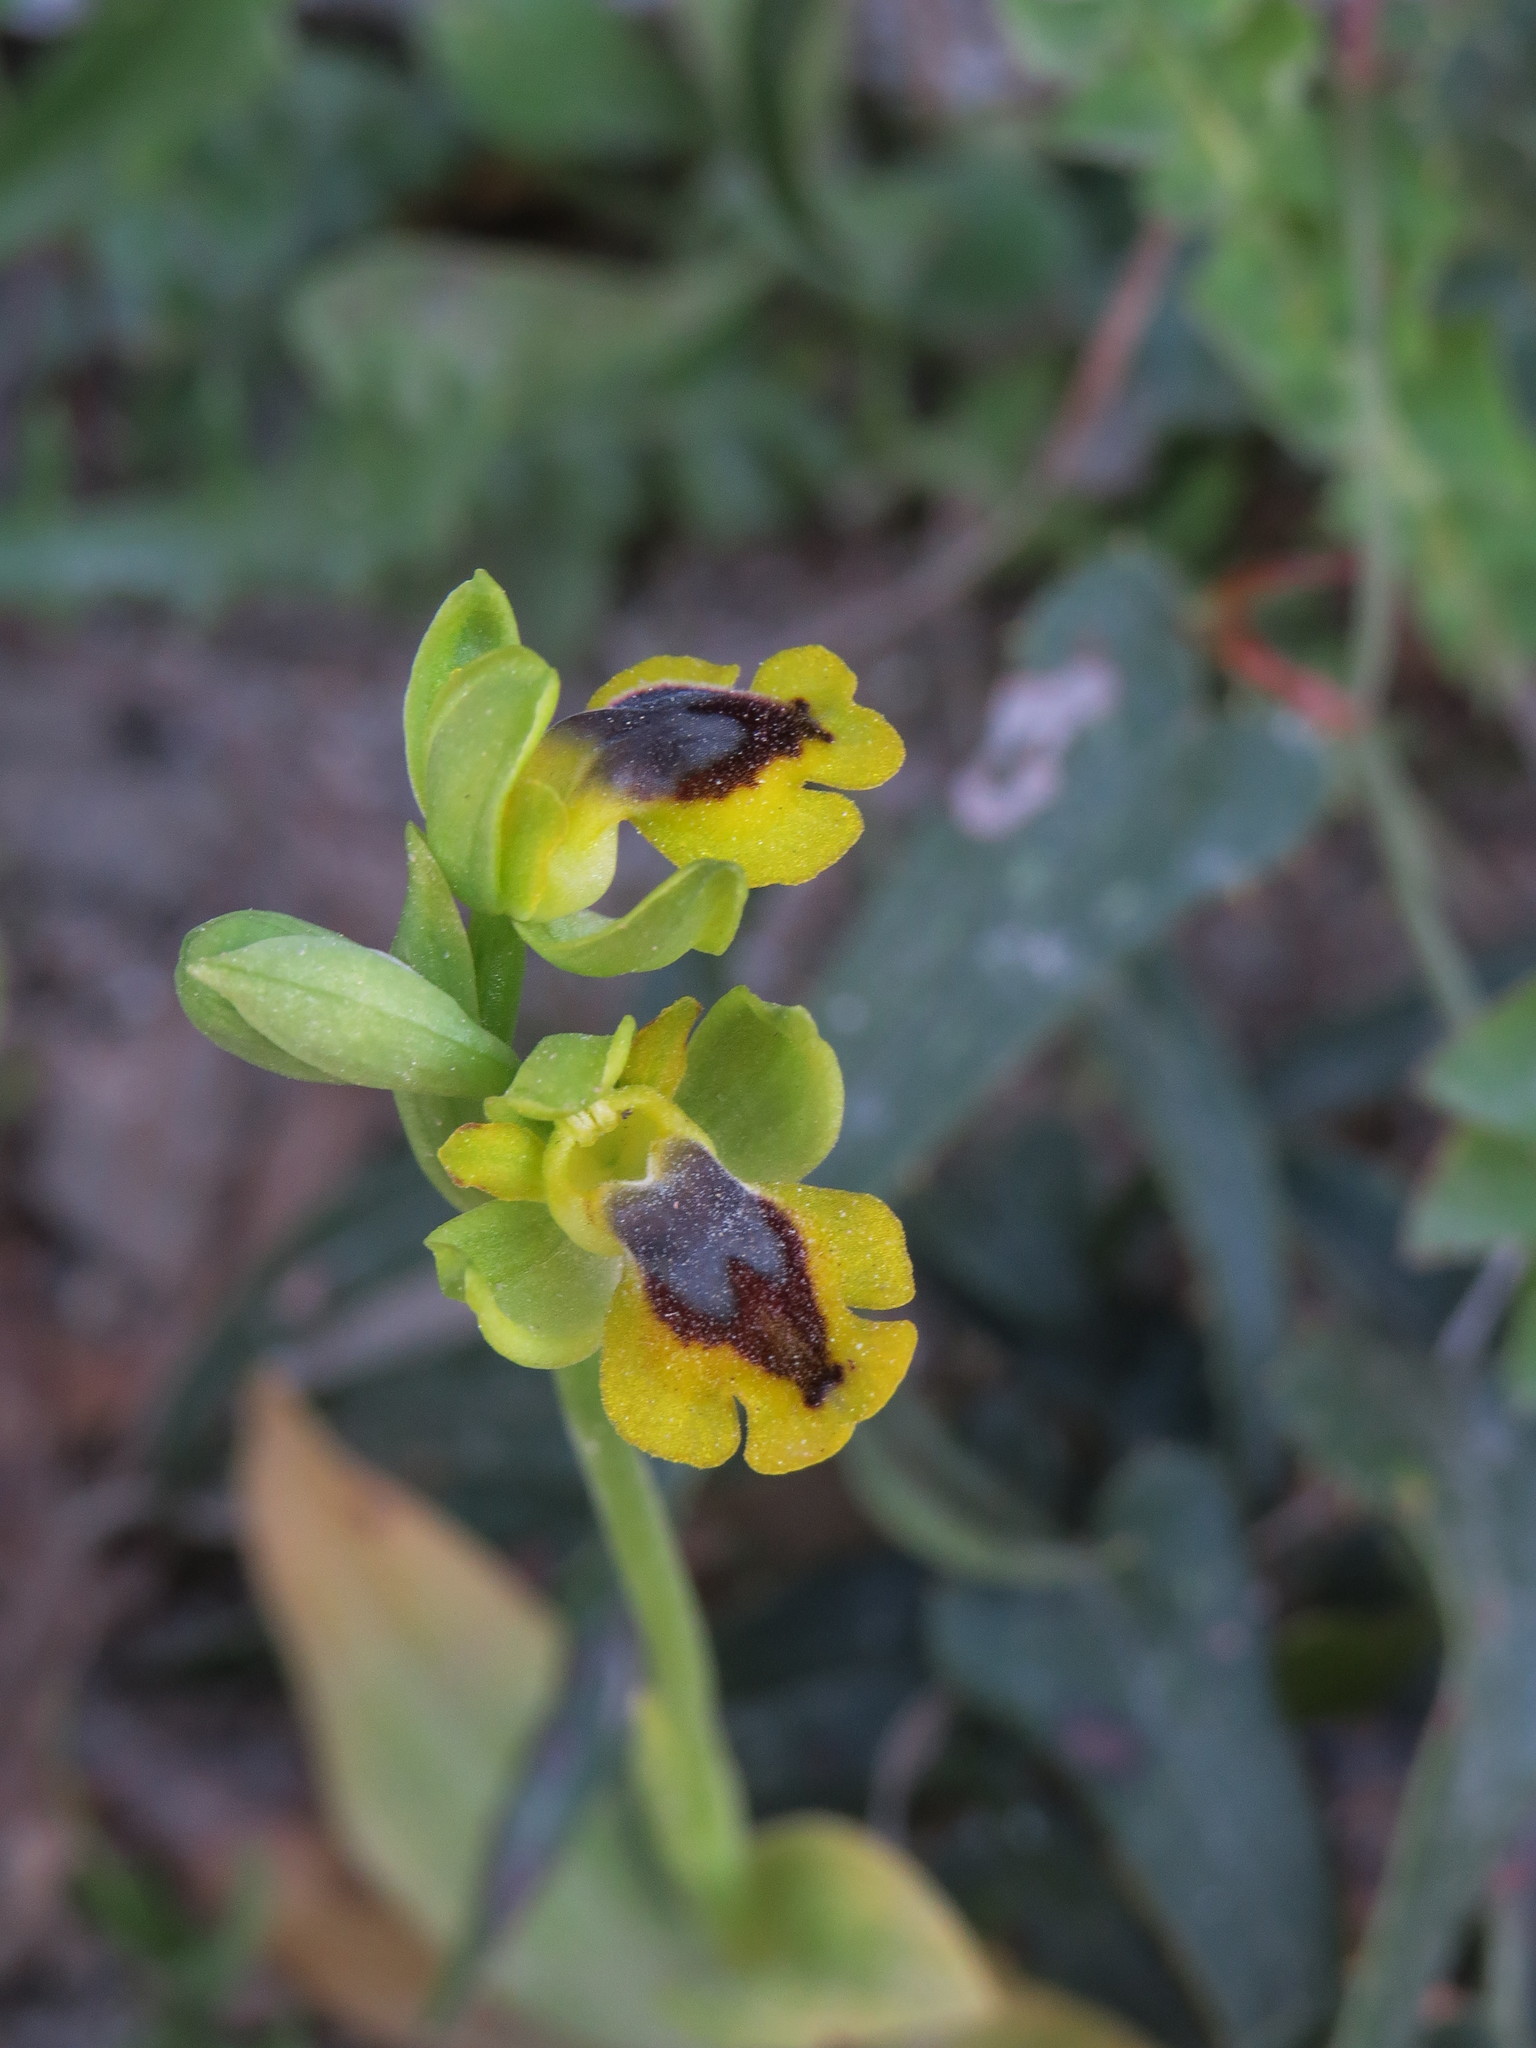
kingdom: Plantae
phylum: Tracheophyta
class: Liliopsida
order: Asparagales
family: Orchidaceae
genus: Ophrys
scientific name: Ophrys lutea
